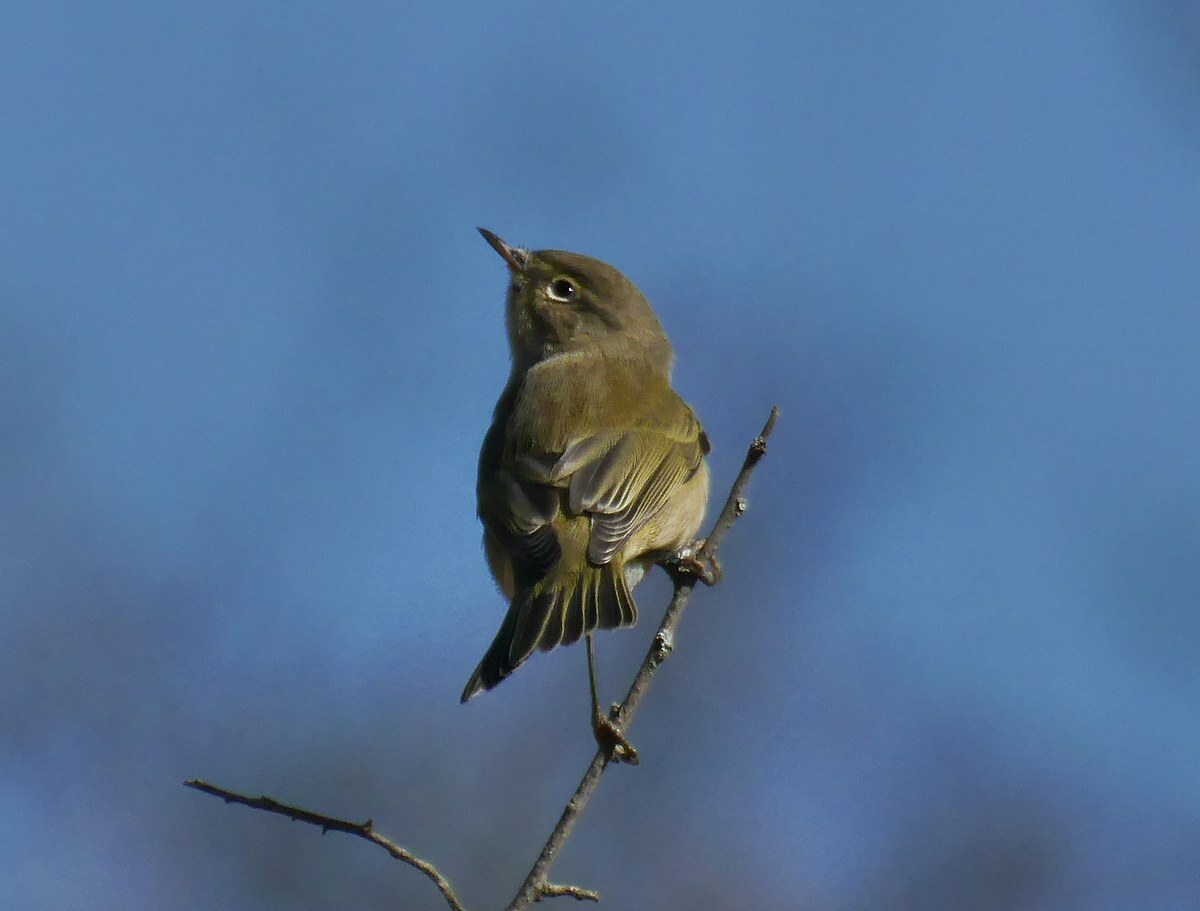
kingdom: Animalia
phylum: Chordata
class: Aves
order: Passeriformes
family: Phylloscopidae
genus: Phylloscopus
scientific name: Phylloscopus collybita
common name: Common chiffchaff
